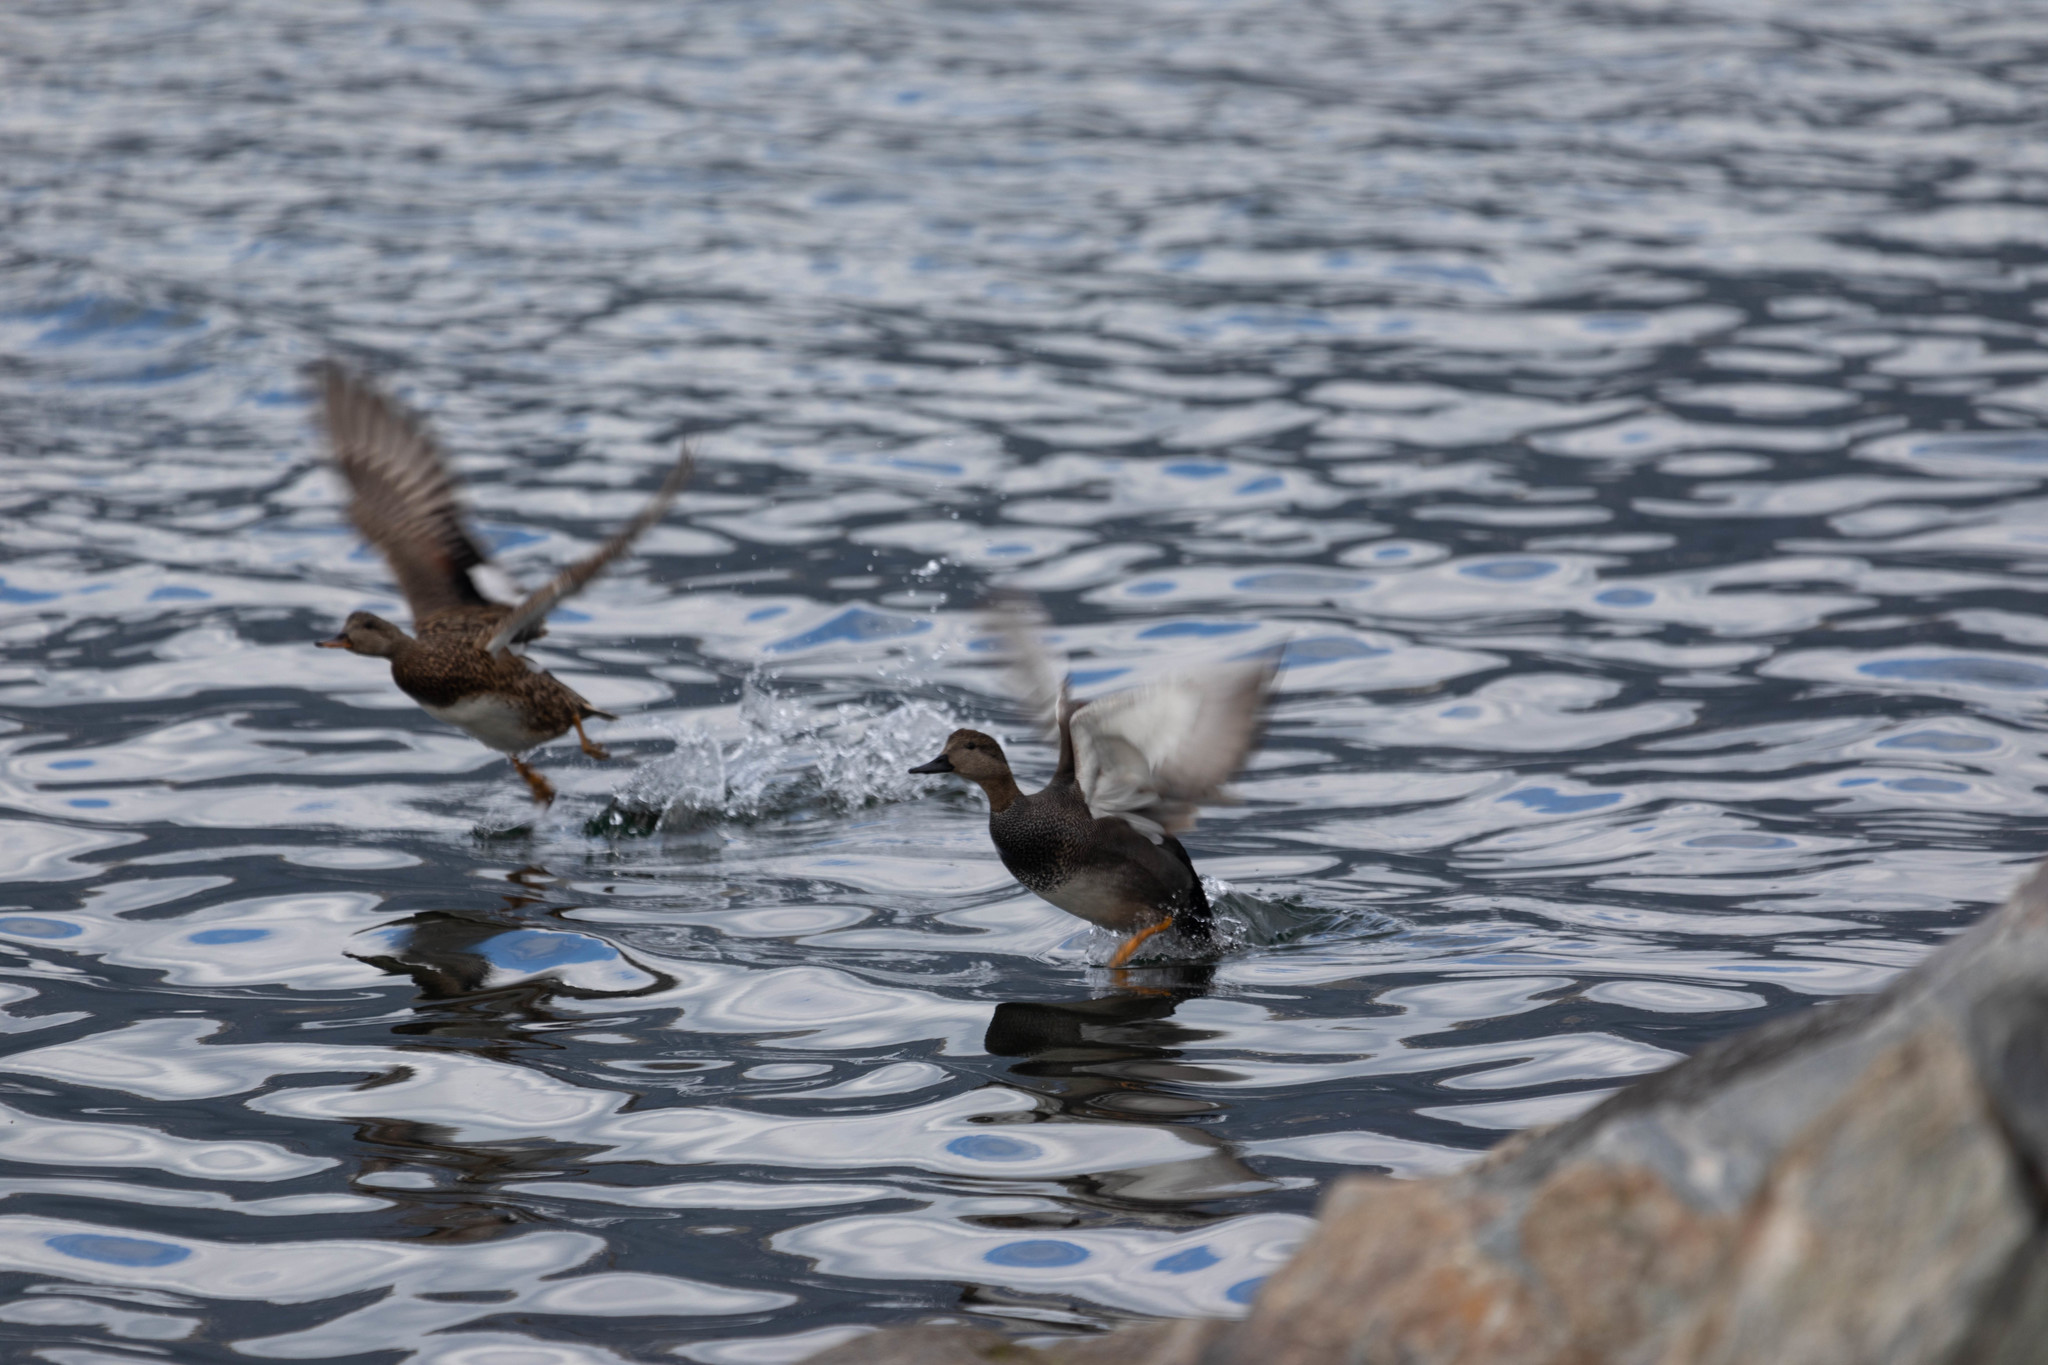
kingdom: Animalia
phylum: Chordata
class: Aves
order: Anseriformes
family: Anatidae
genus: Mareca
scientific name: Mareca strepera
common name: Gadwall
